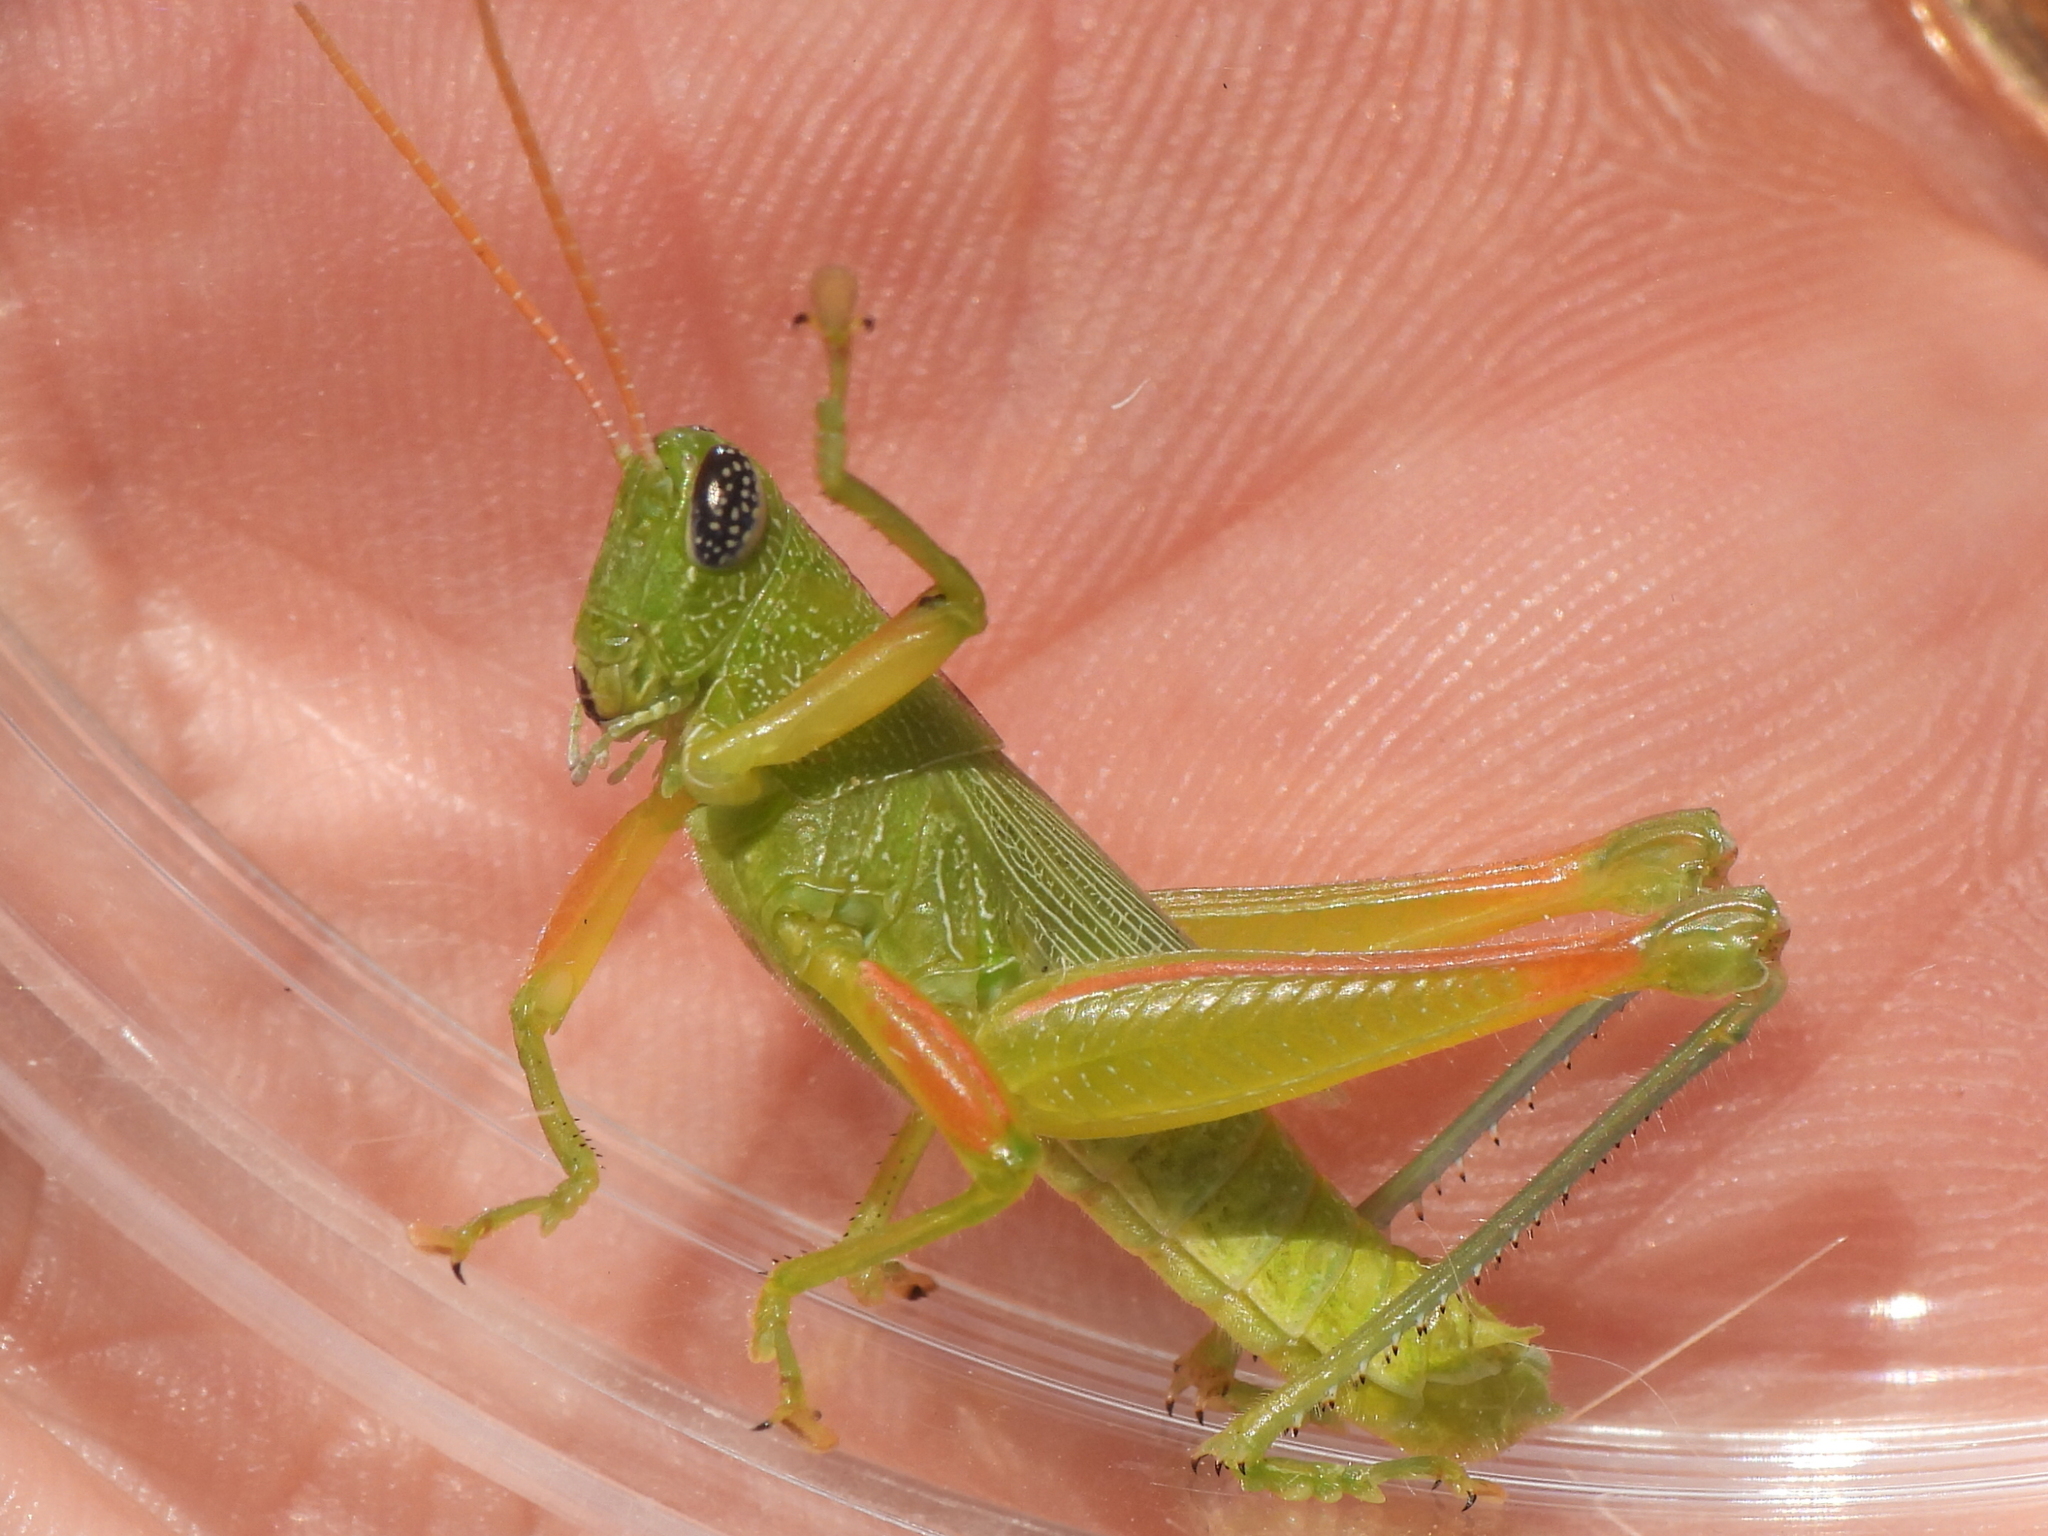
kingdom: Animalia
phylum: Arthropoda
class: Insecta
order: Orthoptera
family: Acrididae
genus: Hesperotettix
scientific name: Hesperotettix speciosus
